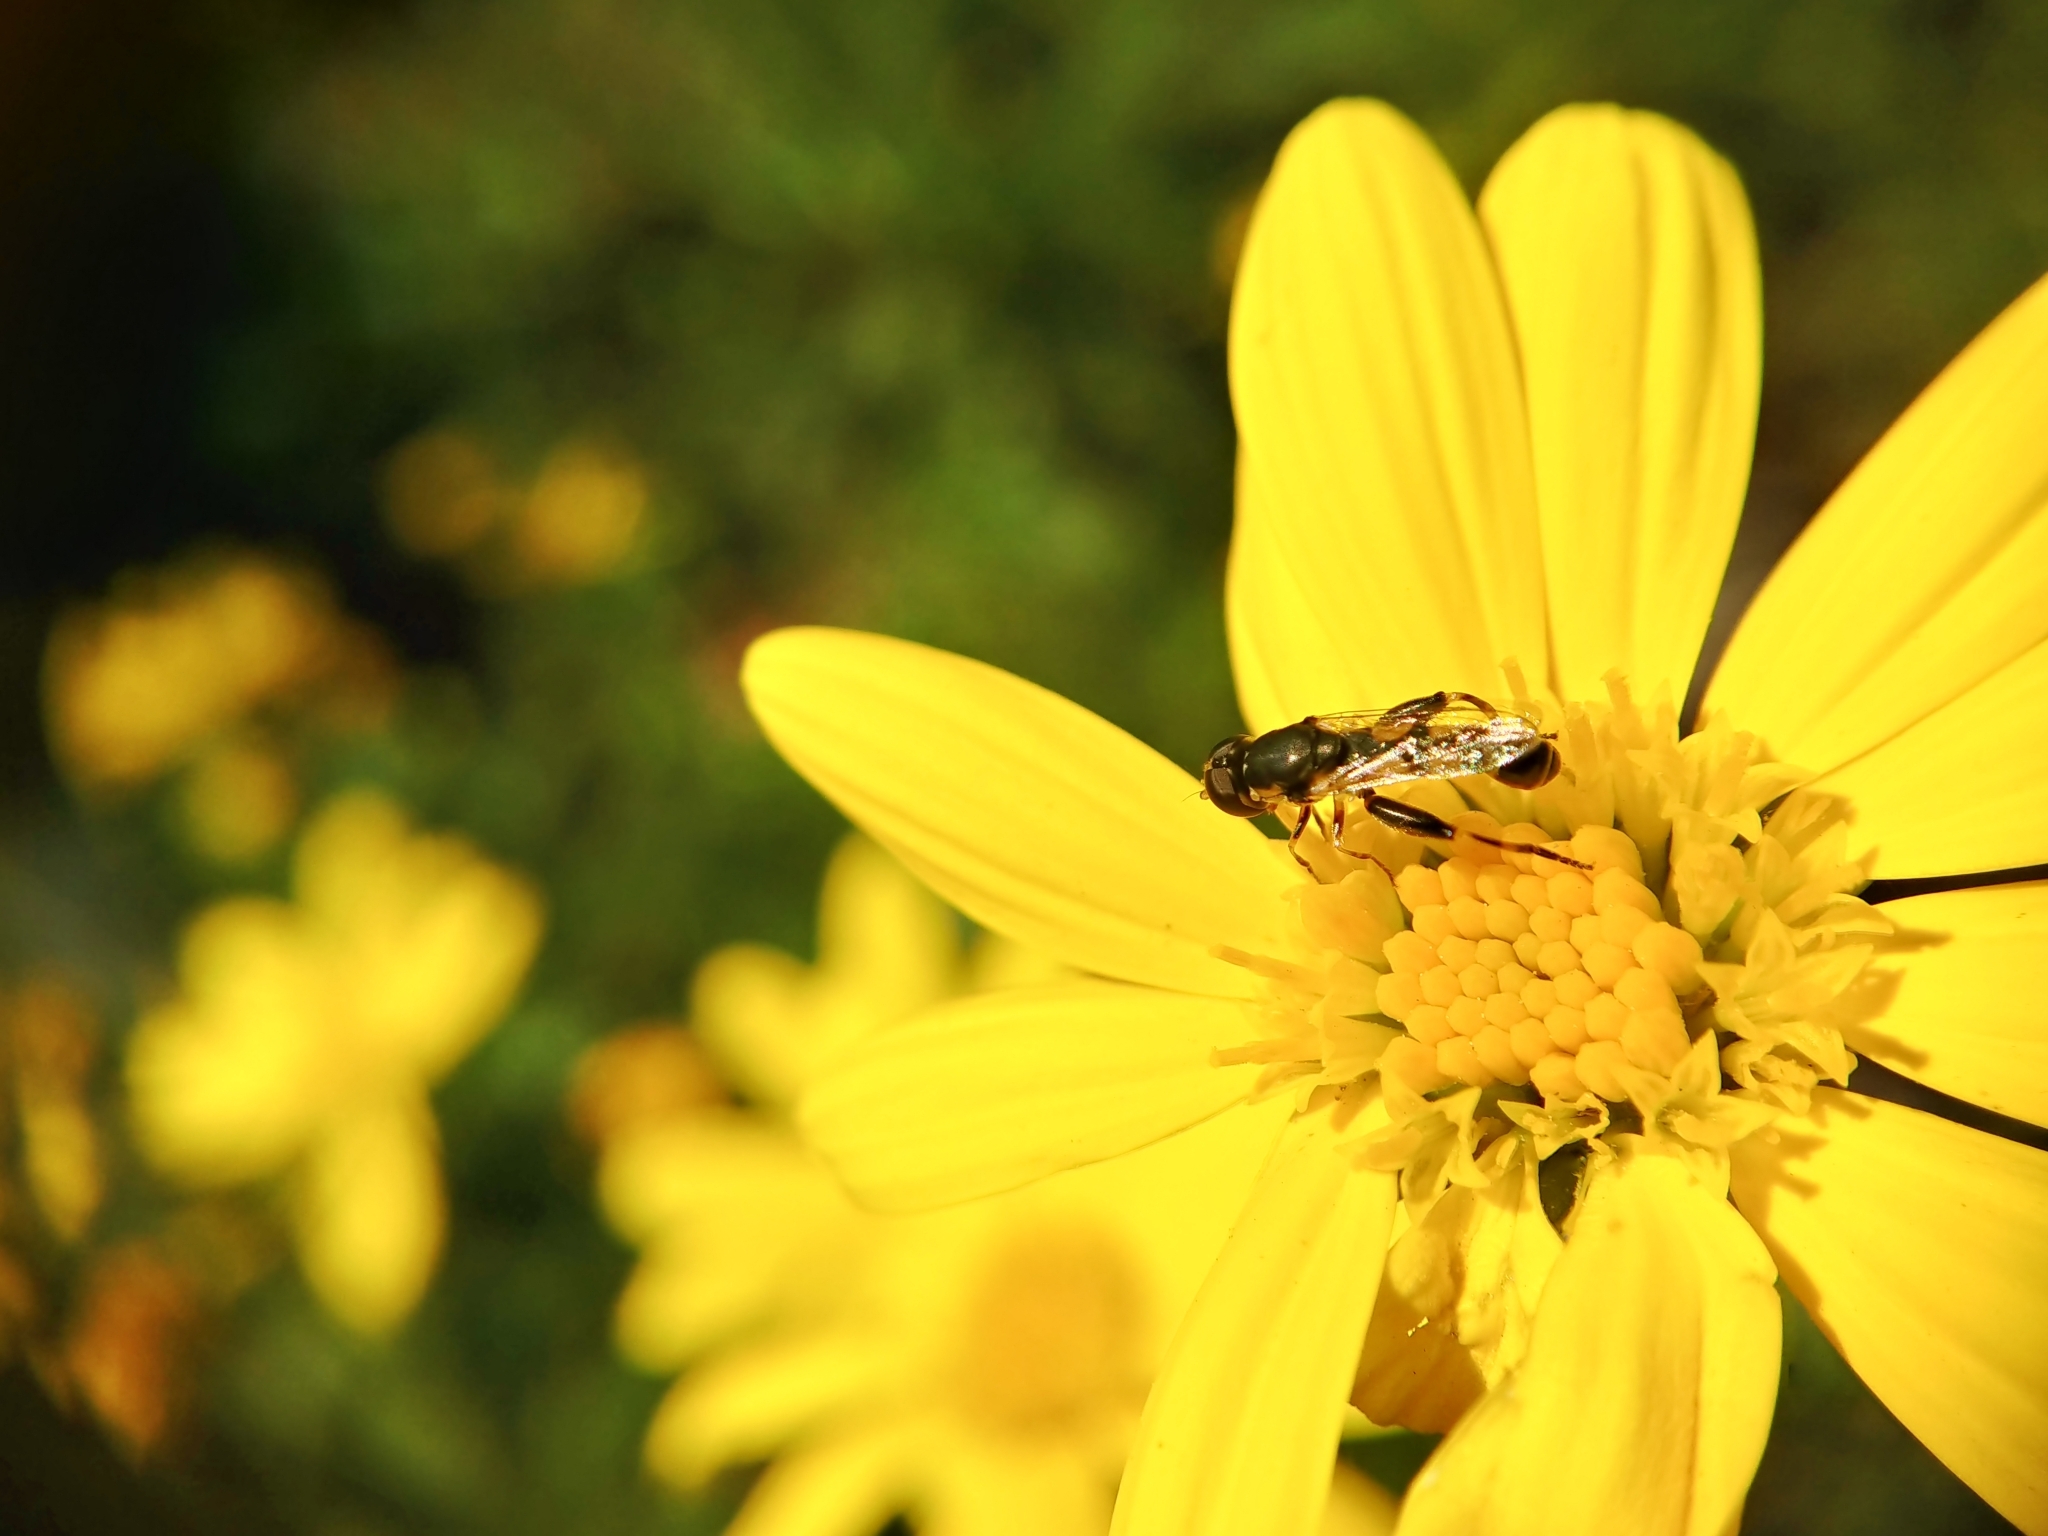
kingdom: Animalia
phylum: Arthropoda
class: Insecta
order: Diptera
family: Syrphidae
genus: Syritta
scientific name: Syritta pipiens
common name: Hover fly
